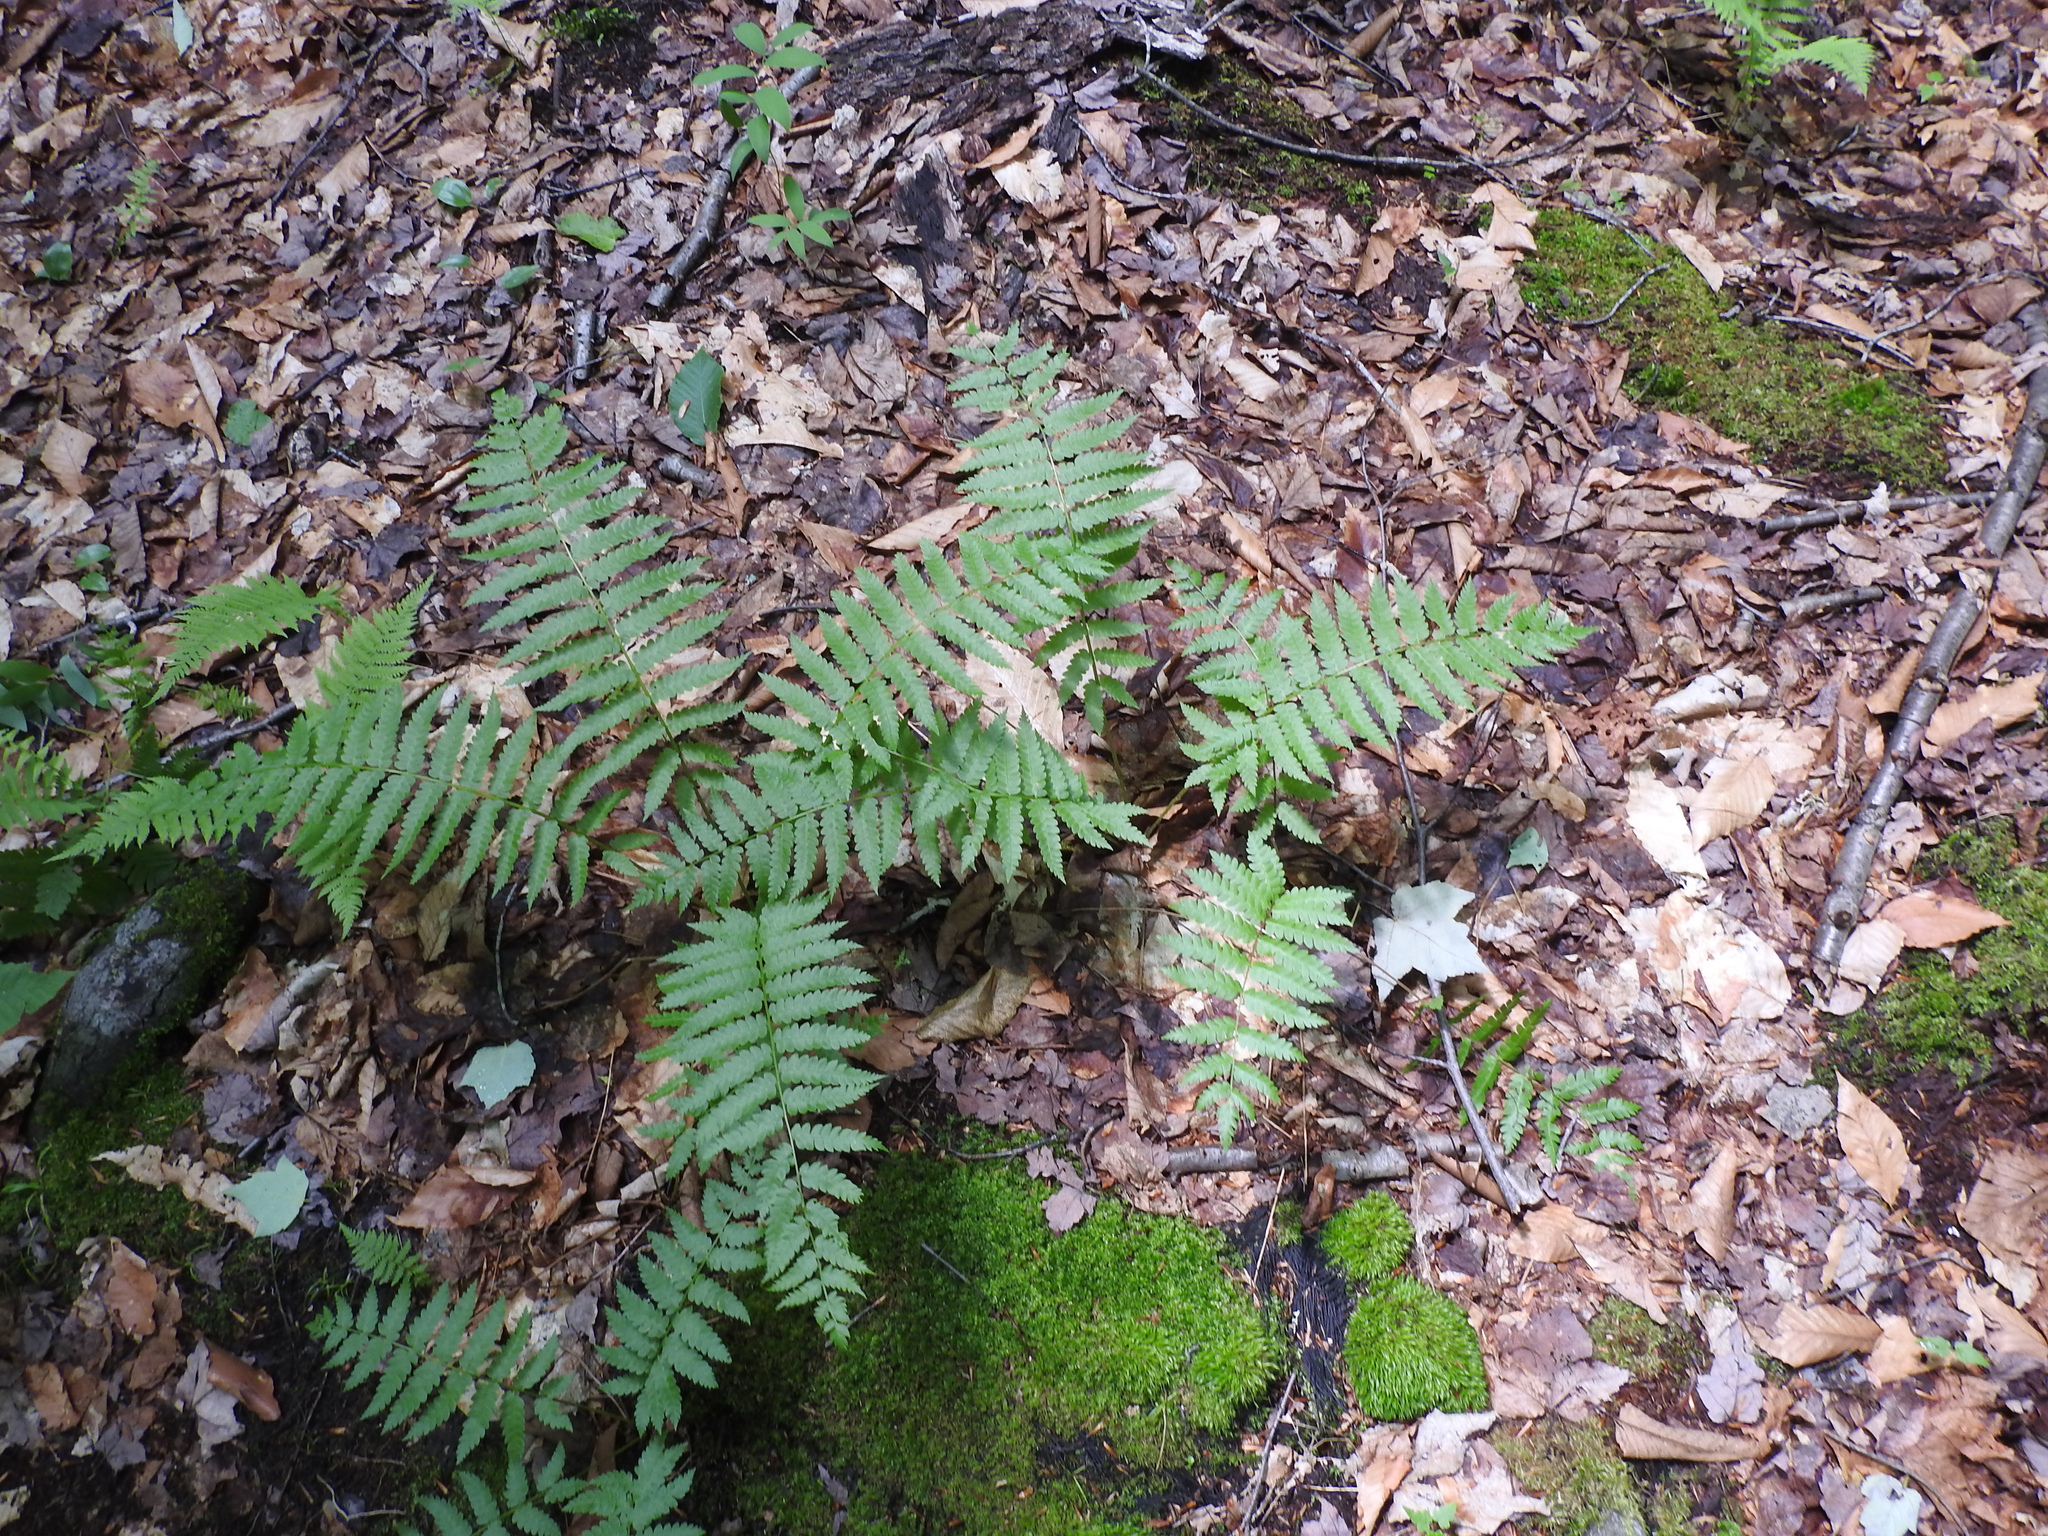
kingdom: Plantae
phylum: Tracheophyta
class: Polypodiopsida
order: Osmundales
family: Osmundaceae
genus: Osmundastrum
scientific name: Osmundastrum cinnamomeum
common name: Cinnamon fern
